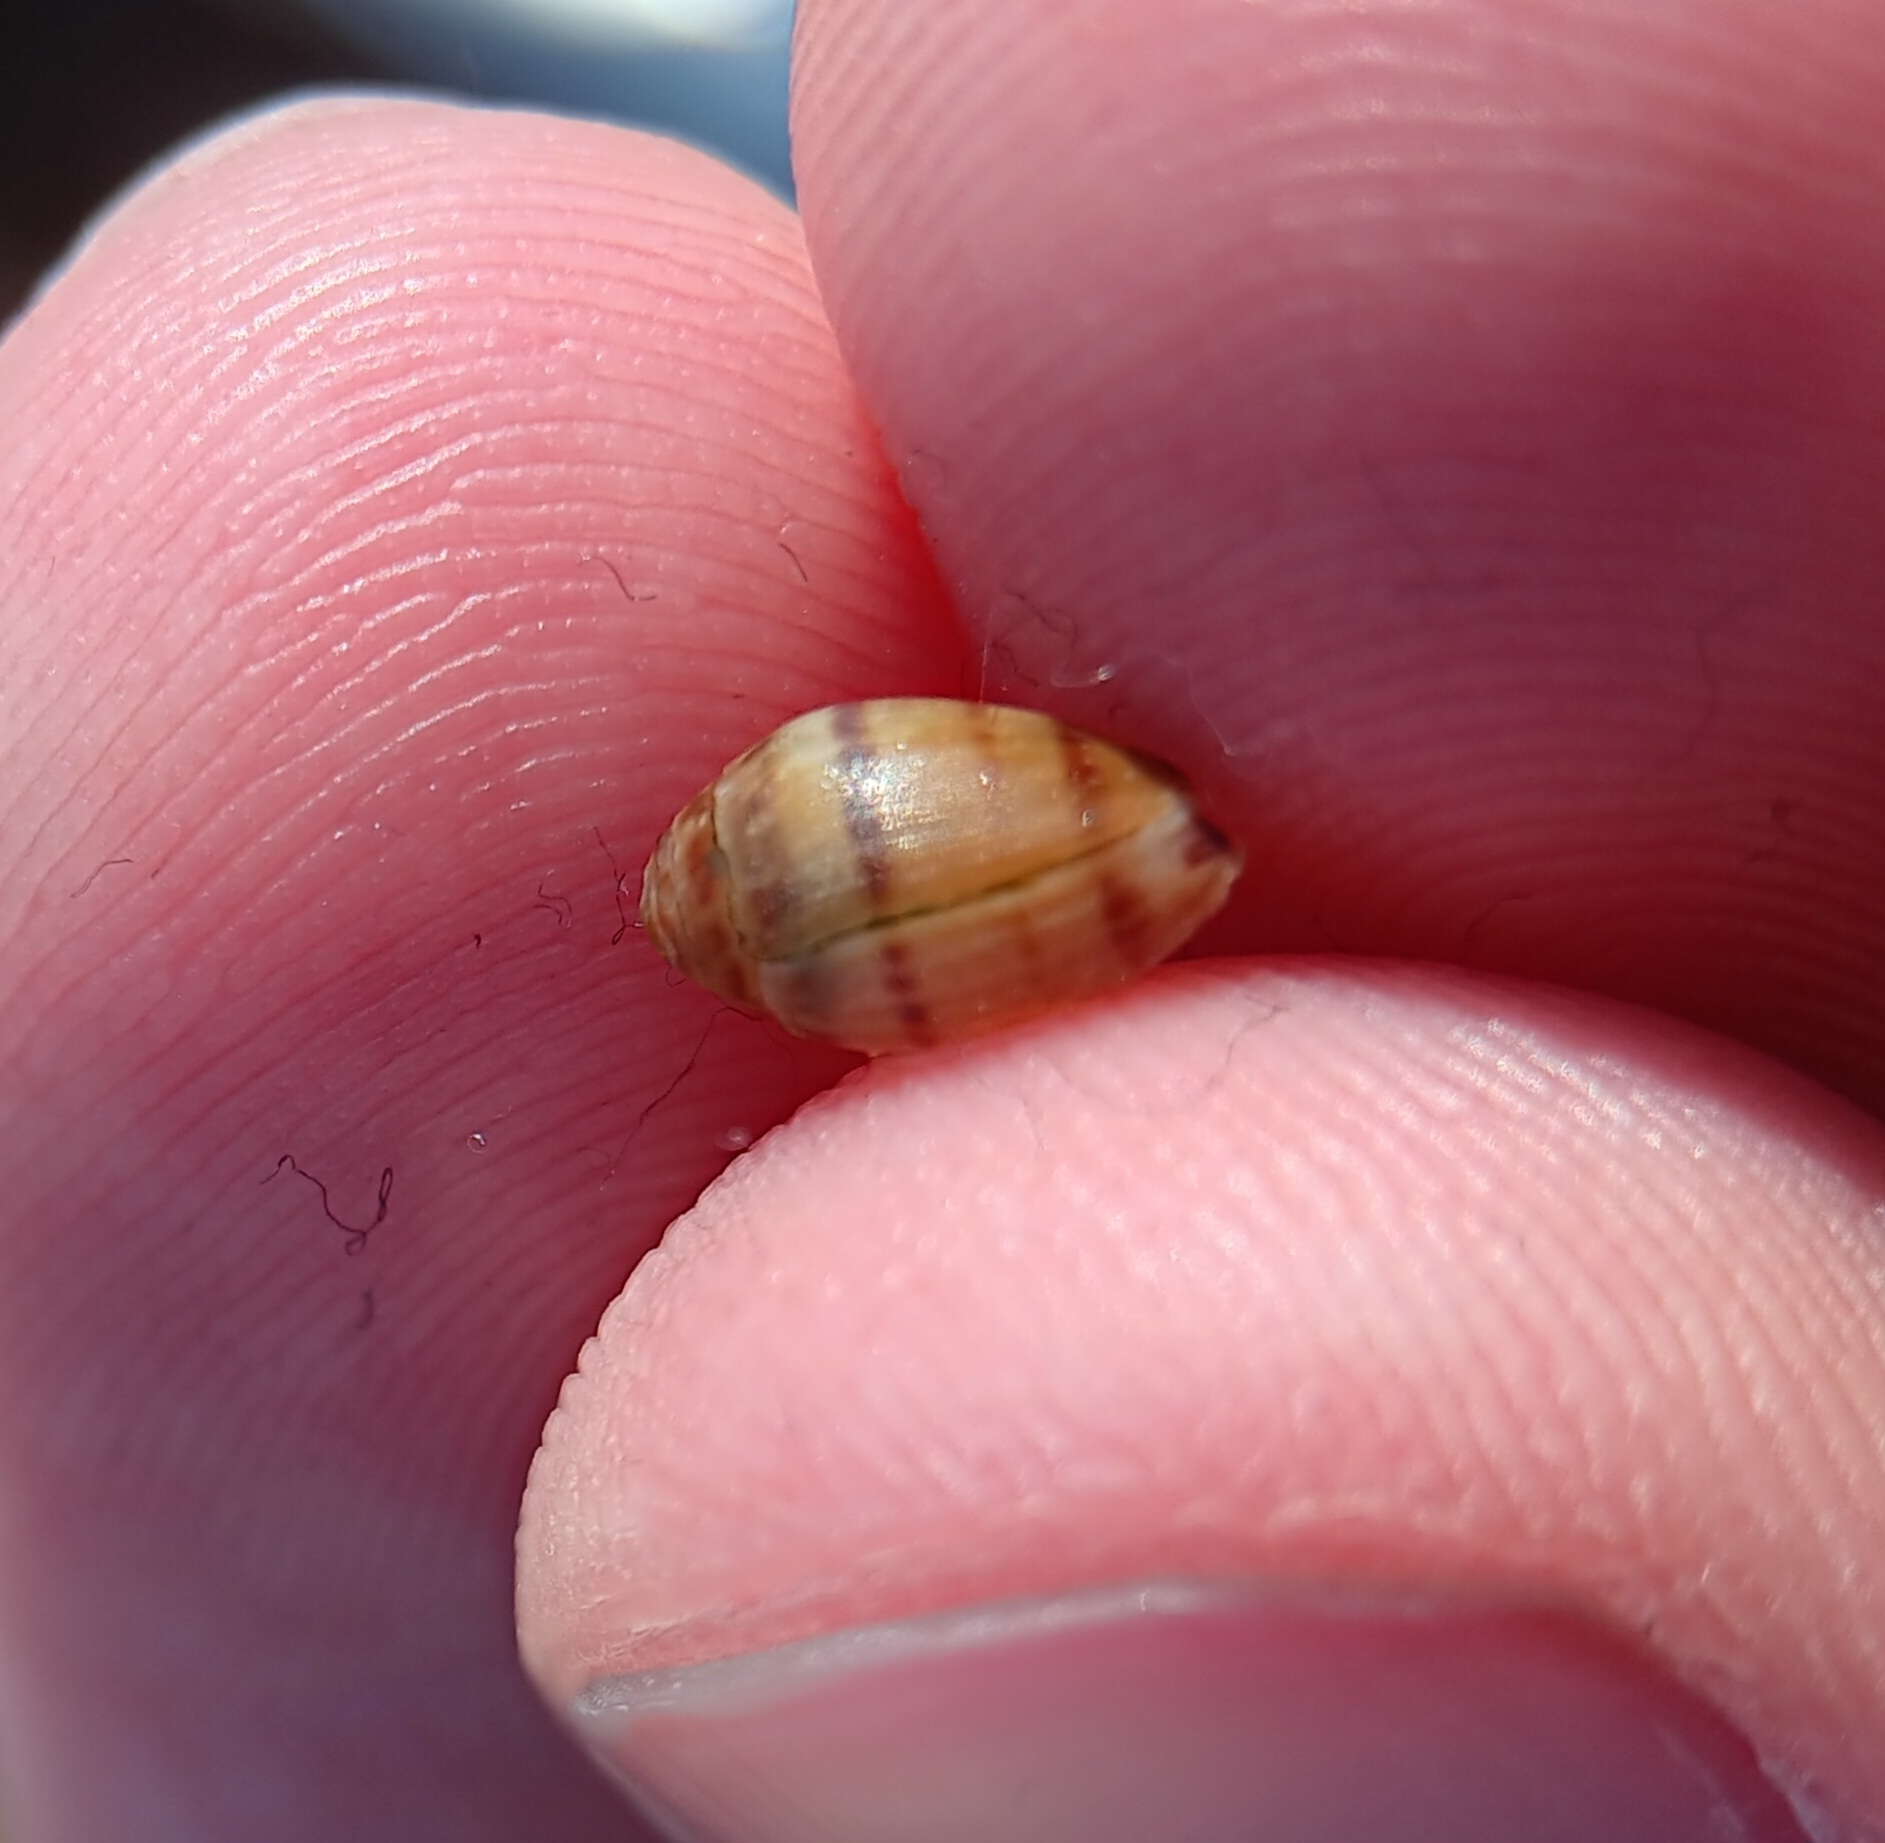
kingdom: Animalia
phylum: Mollusca
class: Gastropoda
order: Ellobiida
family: Ellobiidae
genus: Melampus
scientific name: Melampus bidentatus
